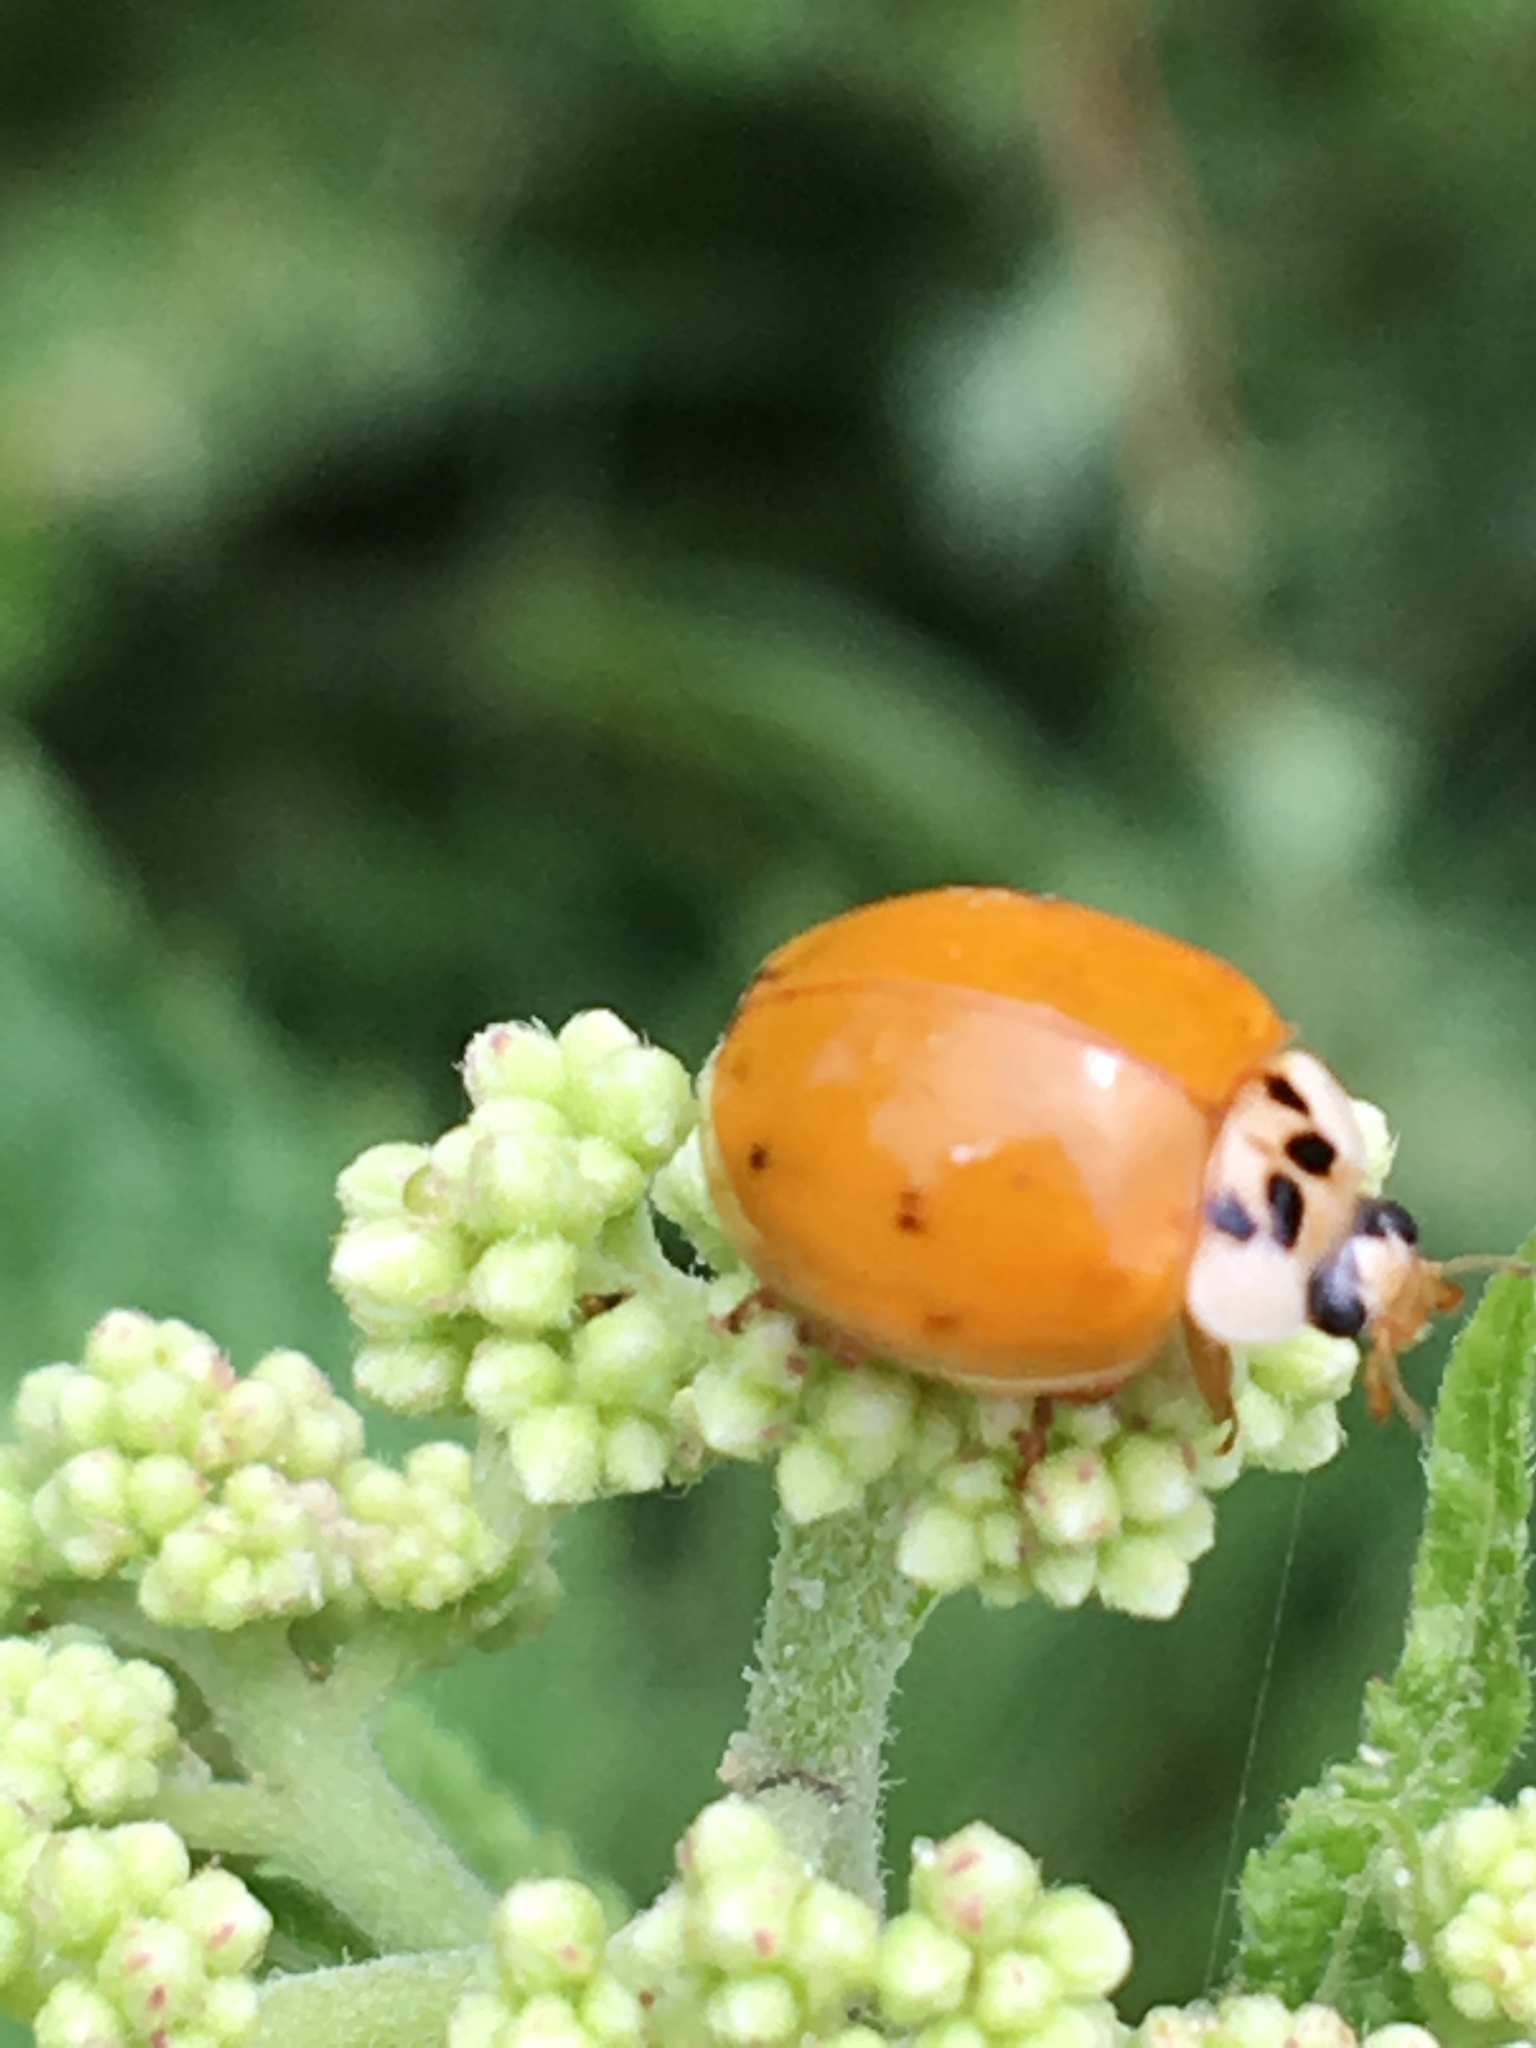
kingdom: Animalia
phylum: Arthropoda
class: Insecta
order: Coleoptera
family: Coccinellidae
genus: Harmonia
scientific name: Harmonia axyridis
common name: Harlequin ladybird
